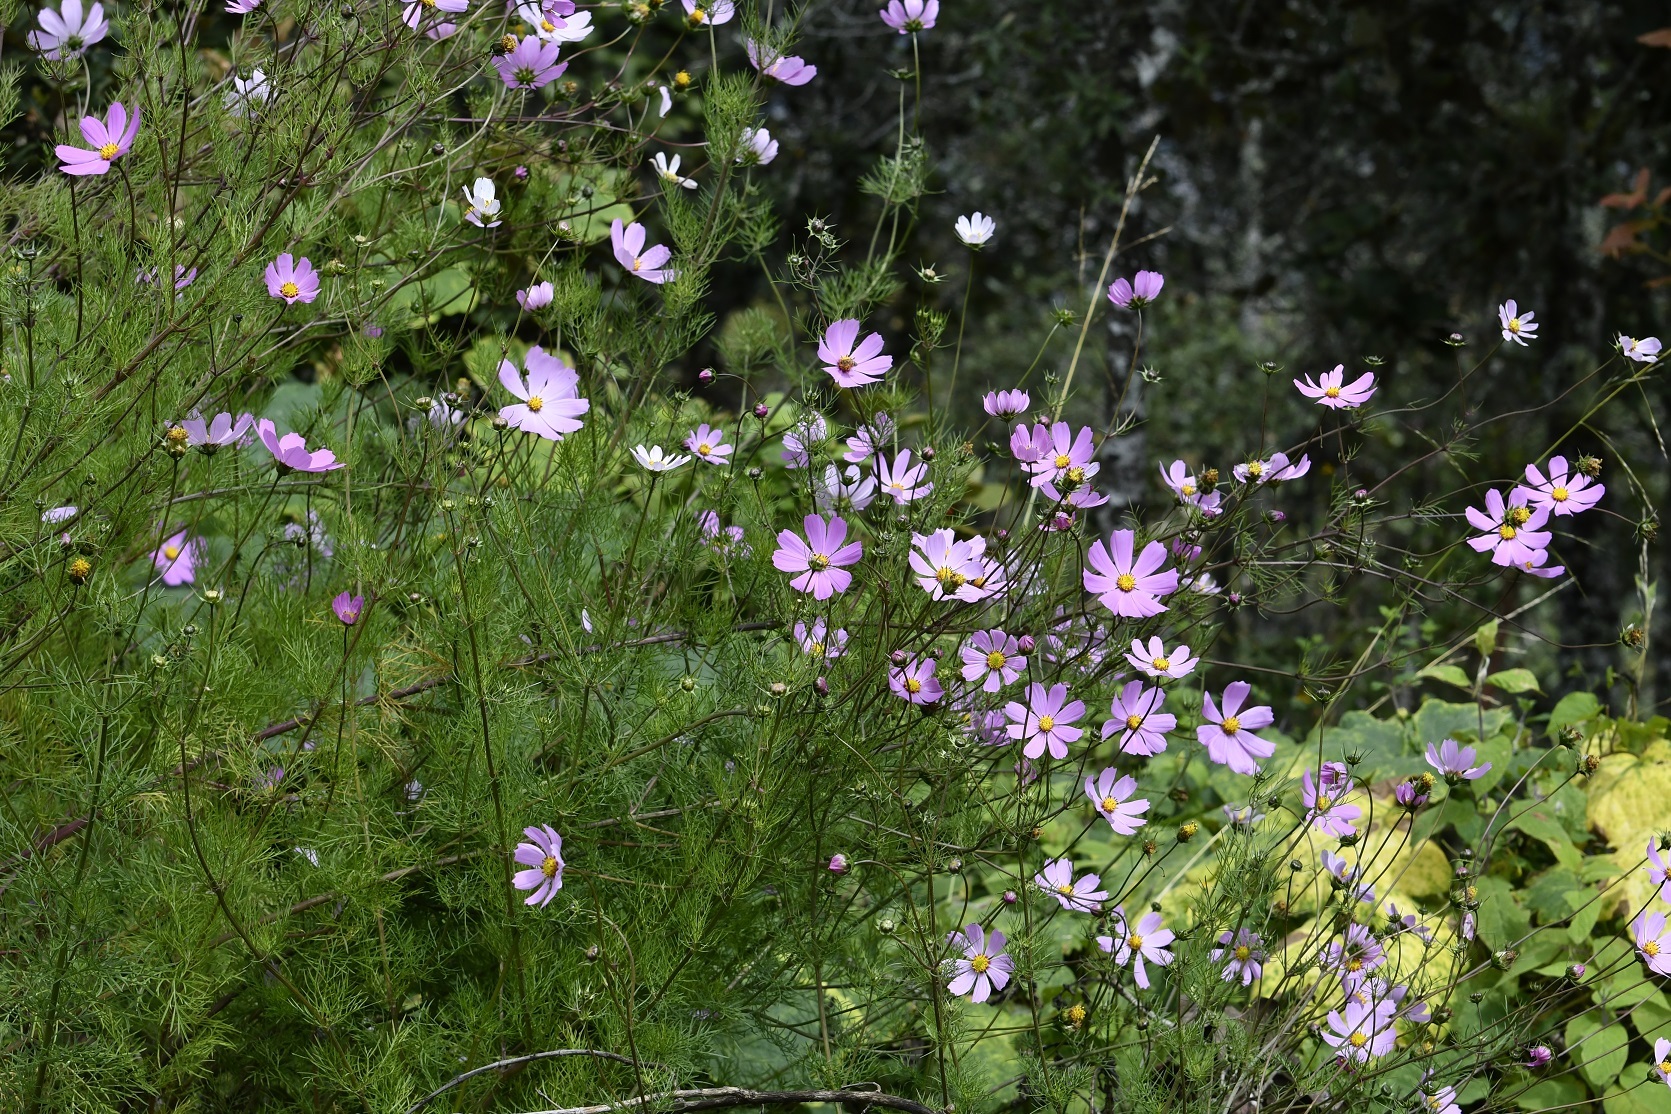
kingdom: Plantae
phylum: Tracheophyta
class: Magnoliopsida
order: Asterales
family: Asteraceae
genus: Cosmos
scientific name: Cosmos bipinnatus
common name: Garden cosmos
